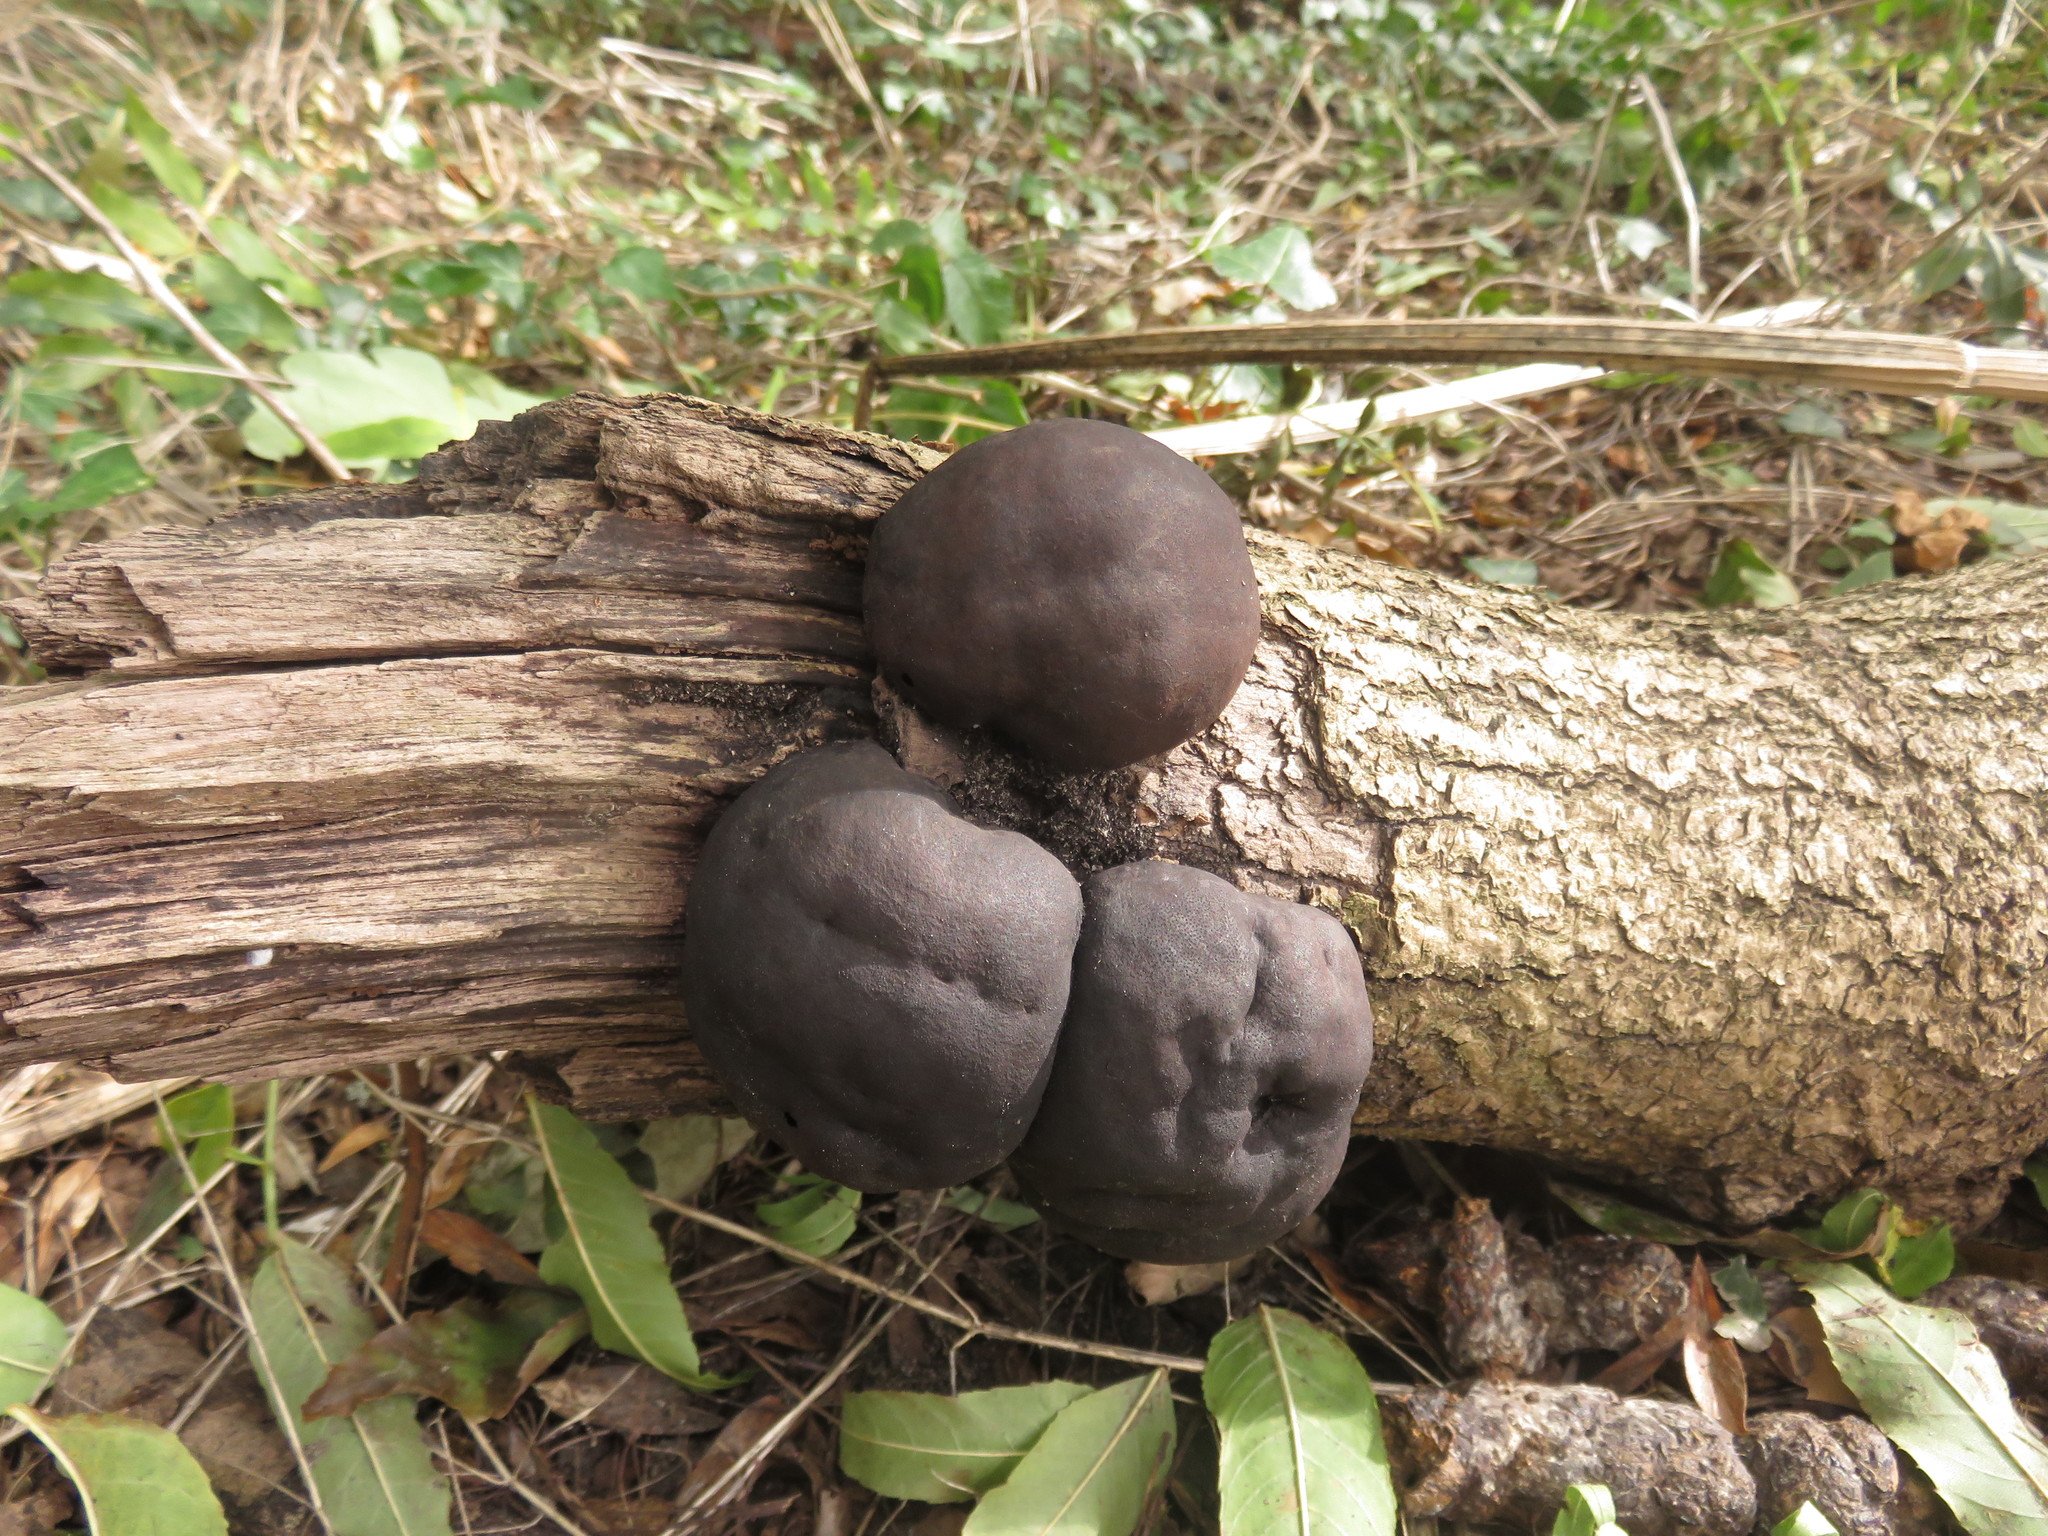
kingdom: Fungi
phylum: Ascomycota
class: Sordariomycetes
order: Xylariales
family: Hypoxylaceae
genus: Daldinia
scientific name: Daldinia concentrica
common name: Cramp balls
